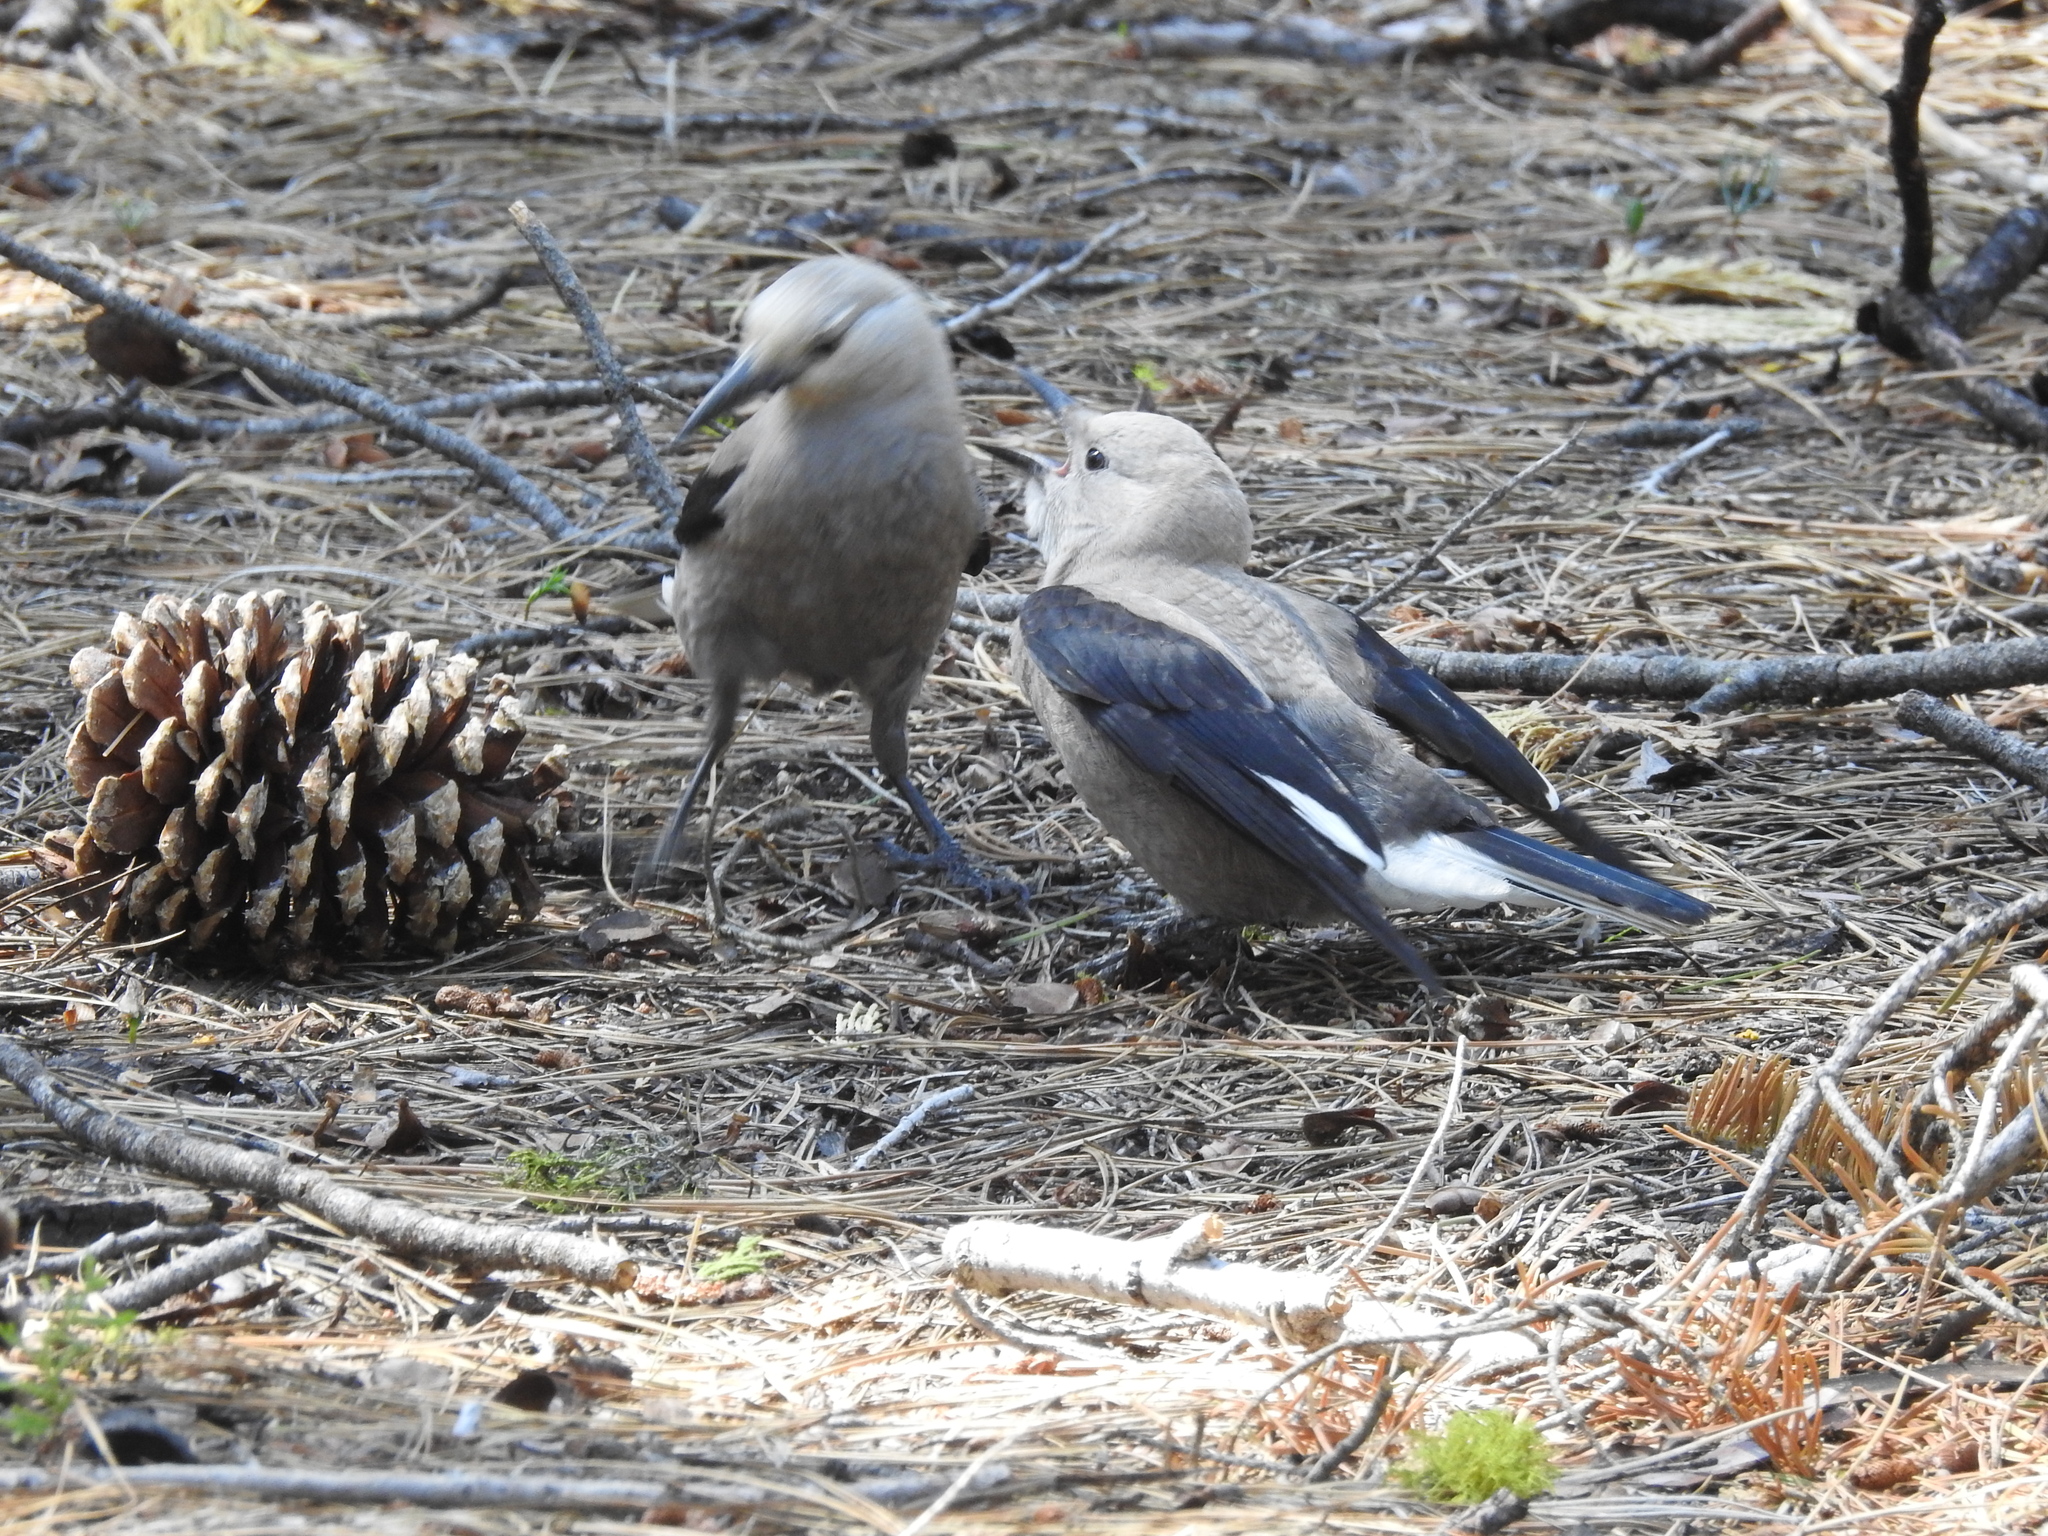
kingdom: Animalia
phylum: Chordata
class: Aves
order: Passeriformes
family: Corvidae
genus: Nucifraga
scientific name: Nucifraga columbiana
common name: Clark's nutcracker
